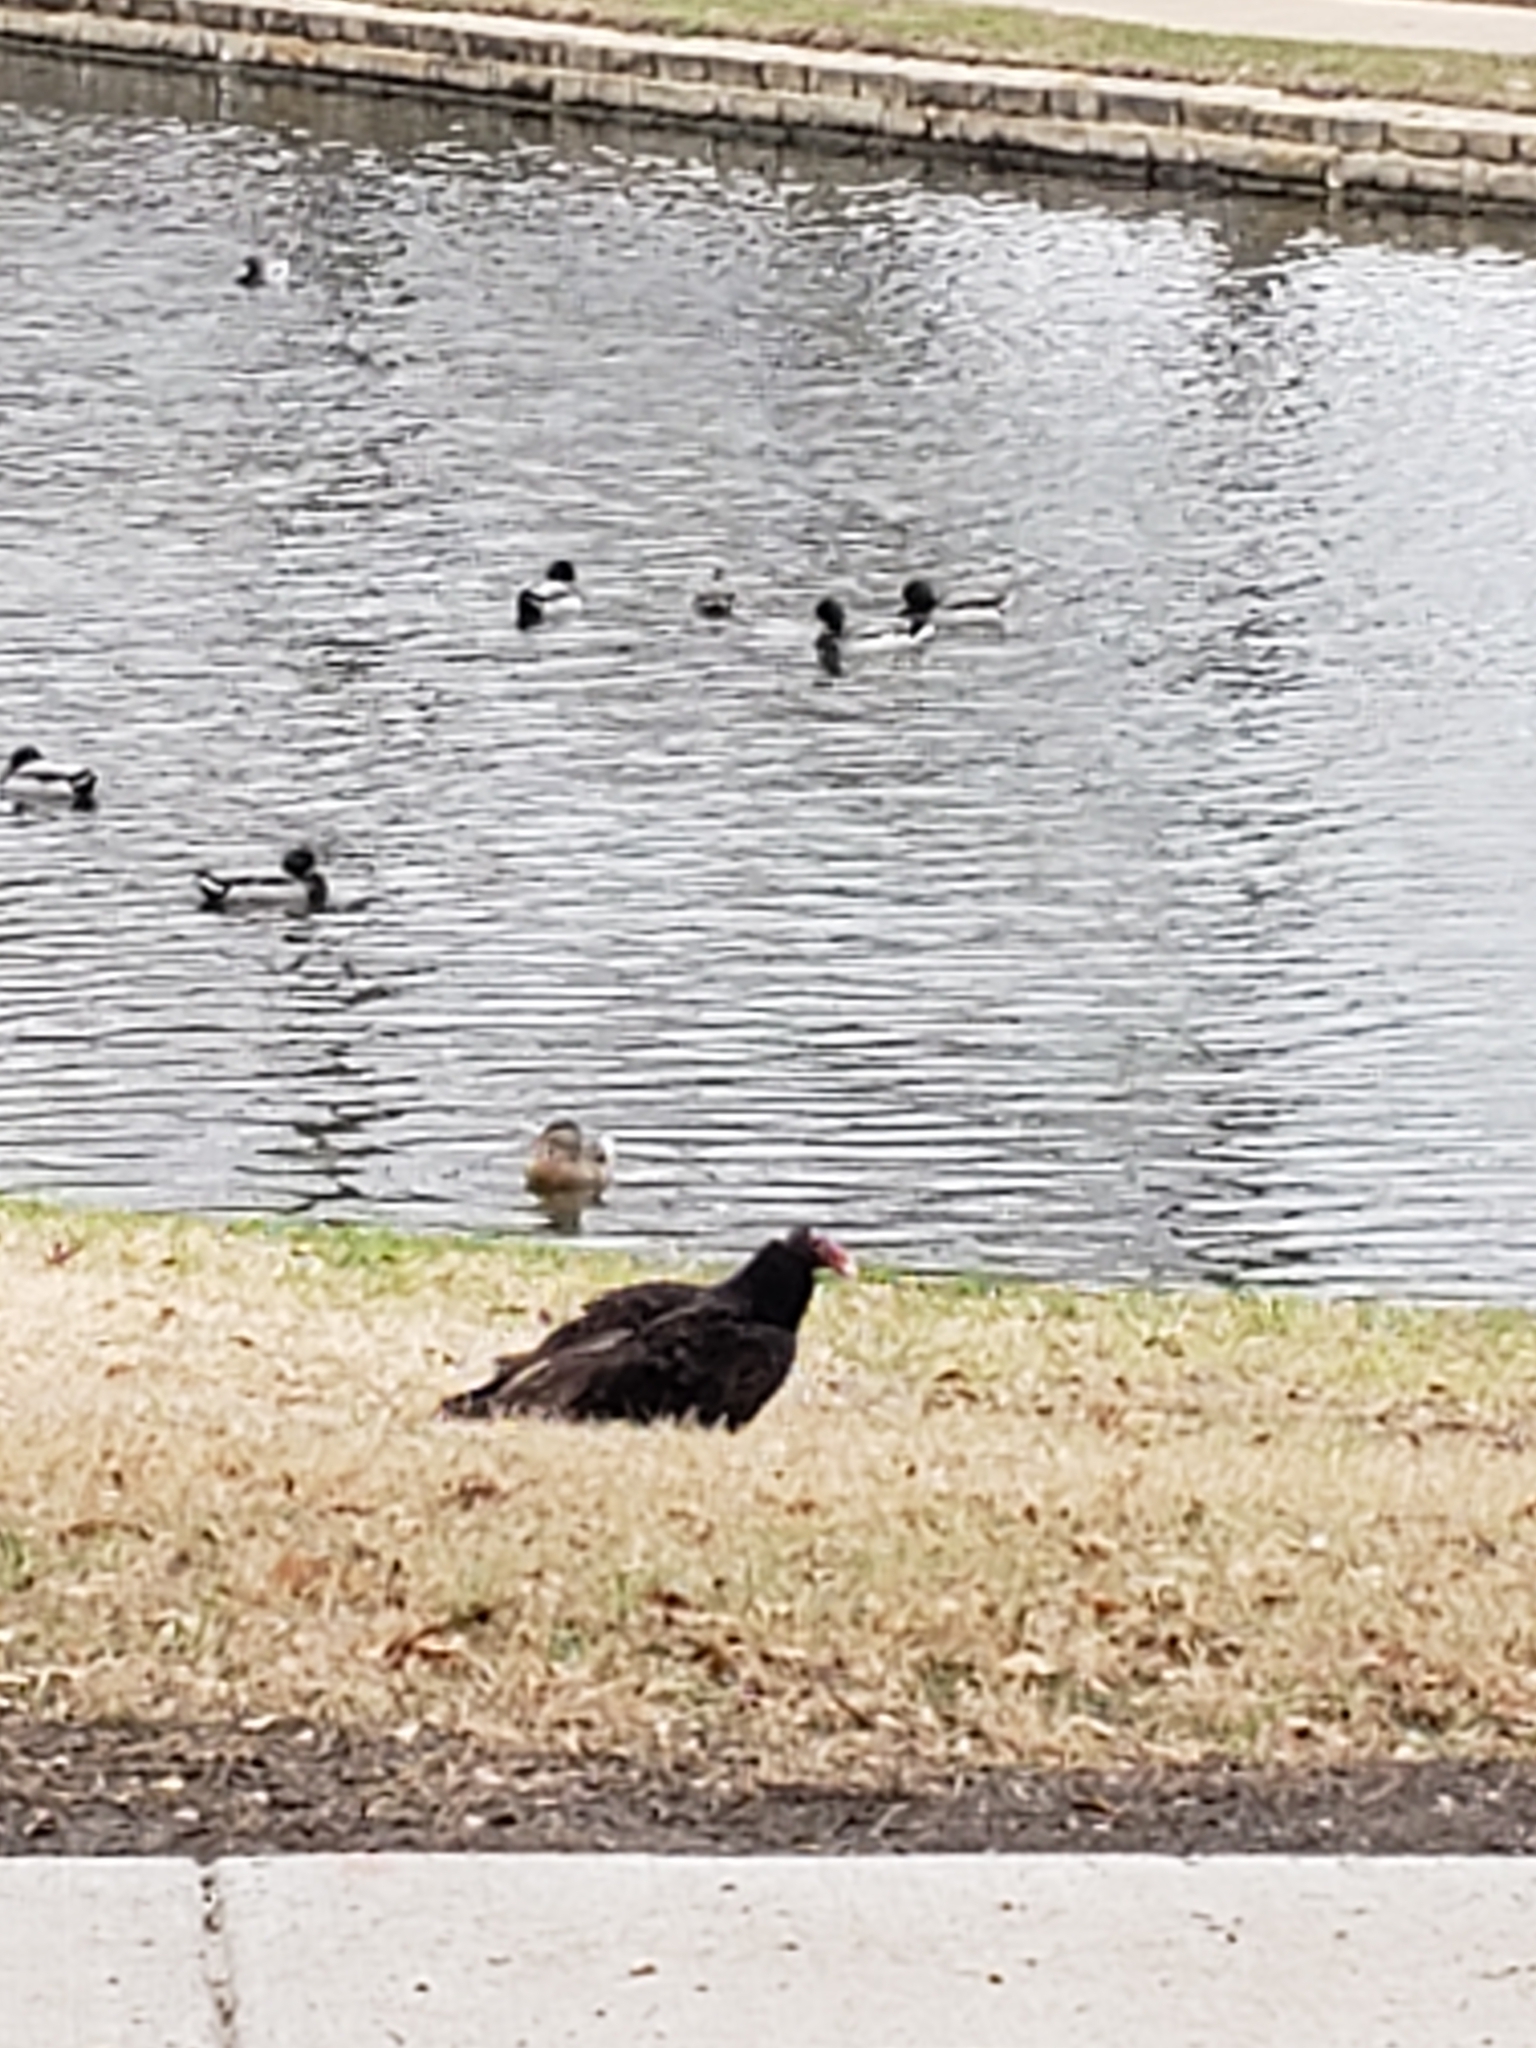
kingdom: Animalia
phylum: Chordata
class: Aves
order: Accipitriformes
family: Cathartidae
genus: Cathartes
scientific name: Cathartes aura
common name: Turkey vulture
